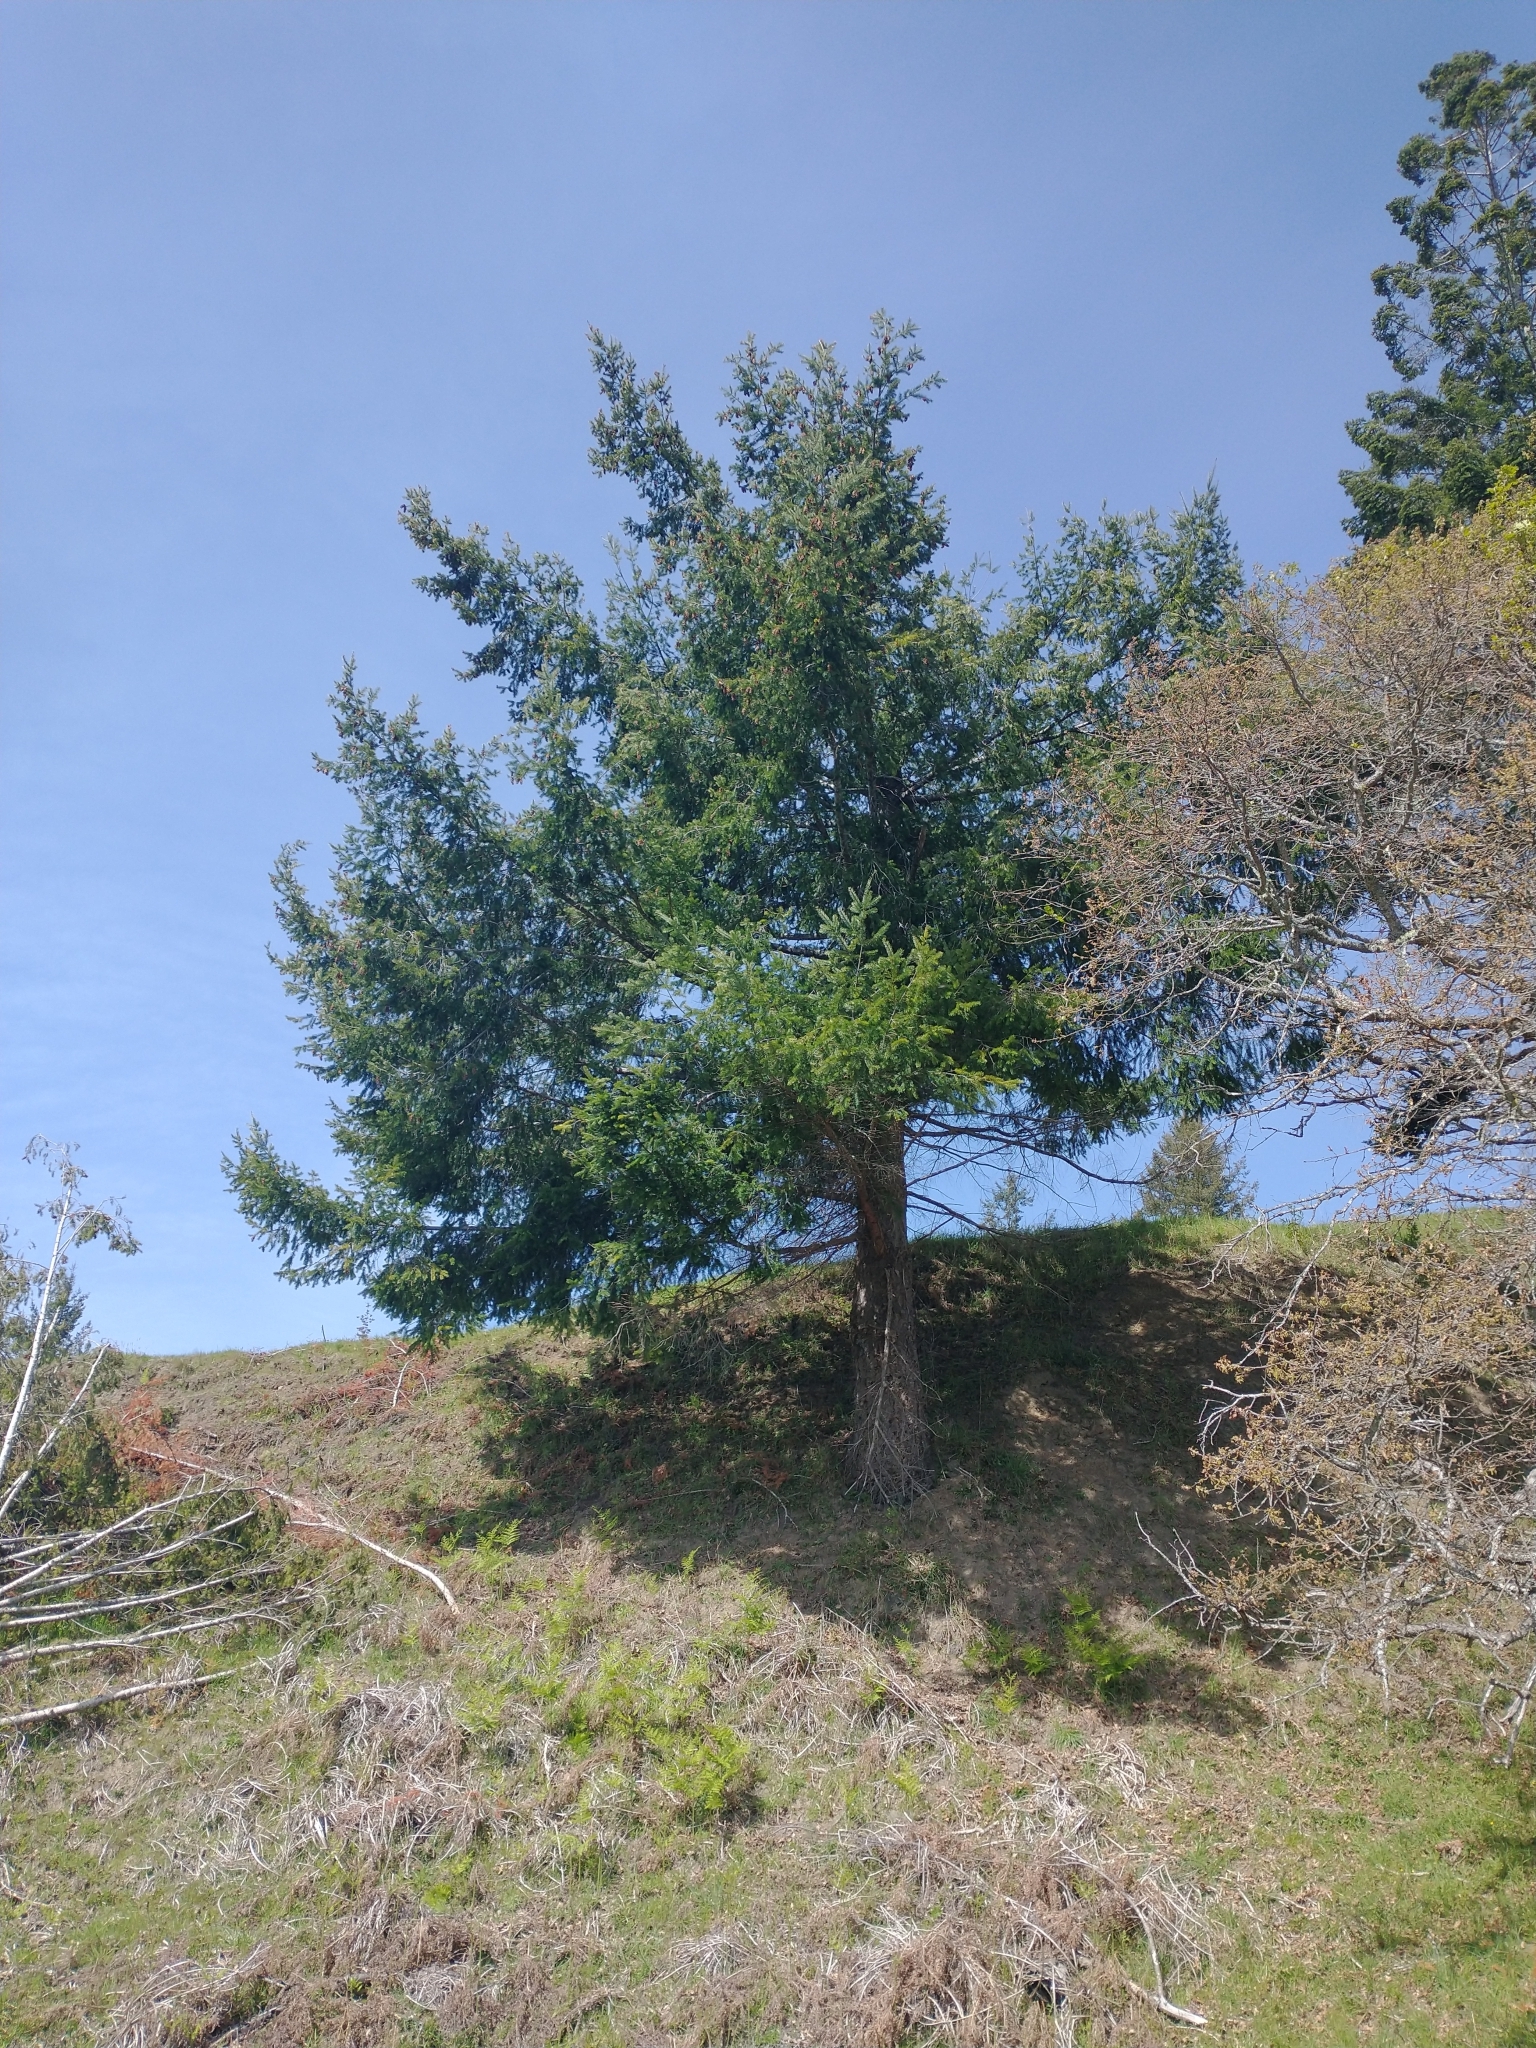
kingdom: Plantae
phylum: Tracheophyta
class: Pinopsida
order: Pinales
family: Pinaceae
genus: Pseudotsuga
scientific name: Pseudotsuga menziesii
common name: Douglas fir
